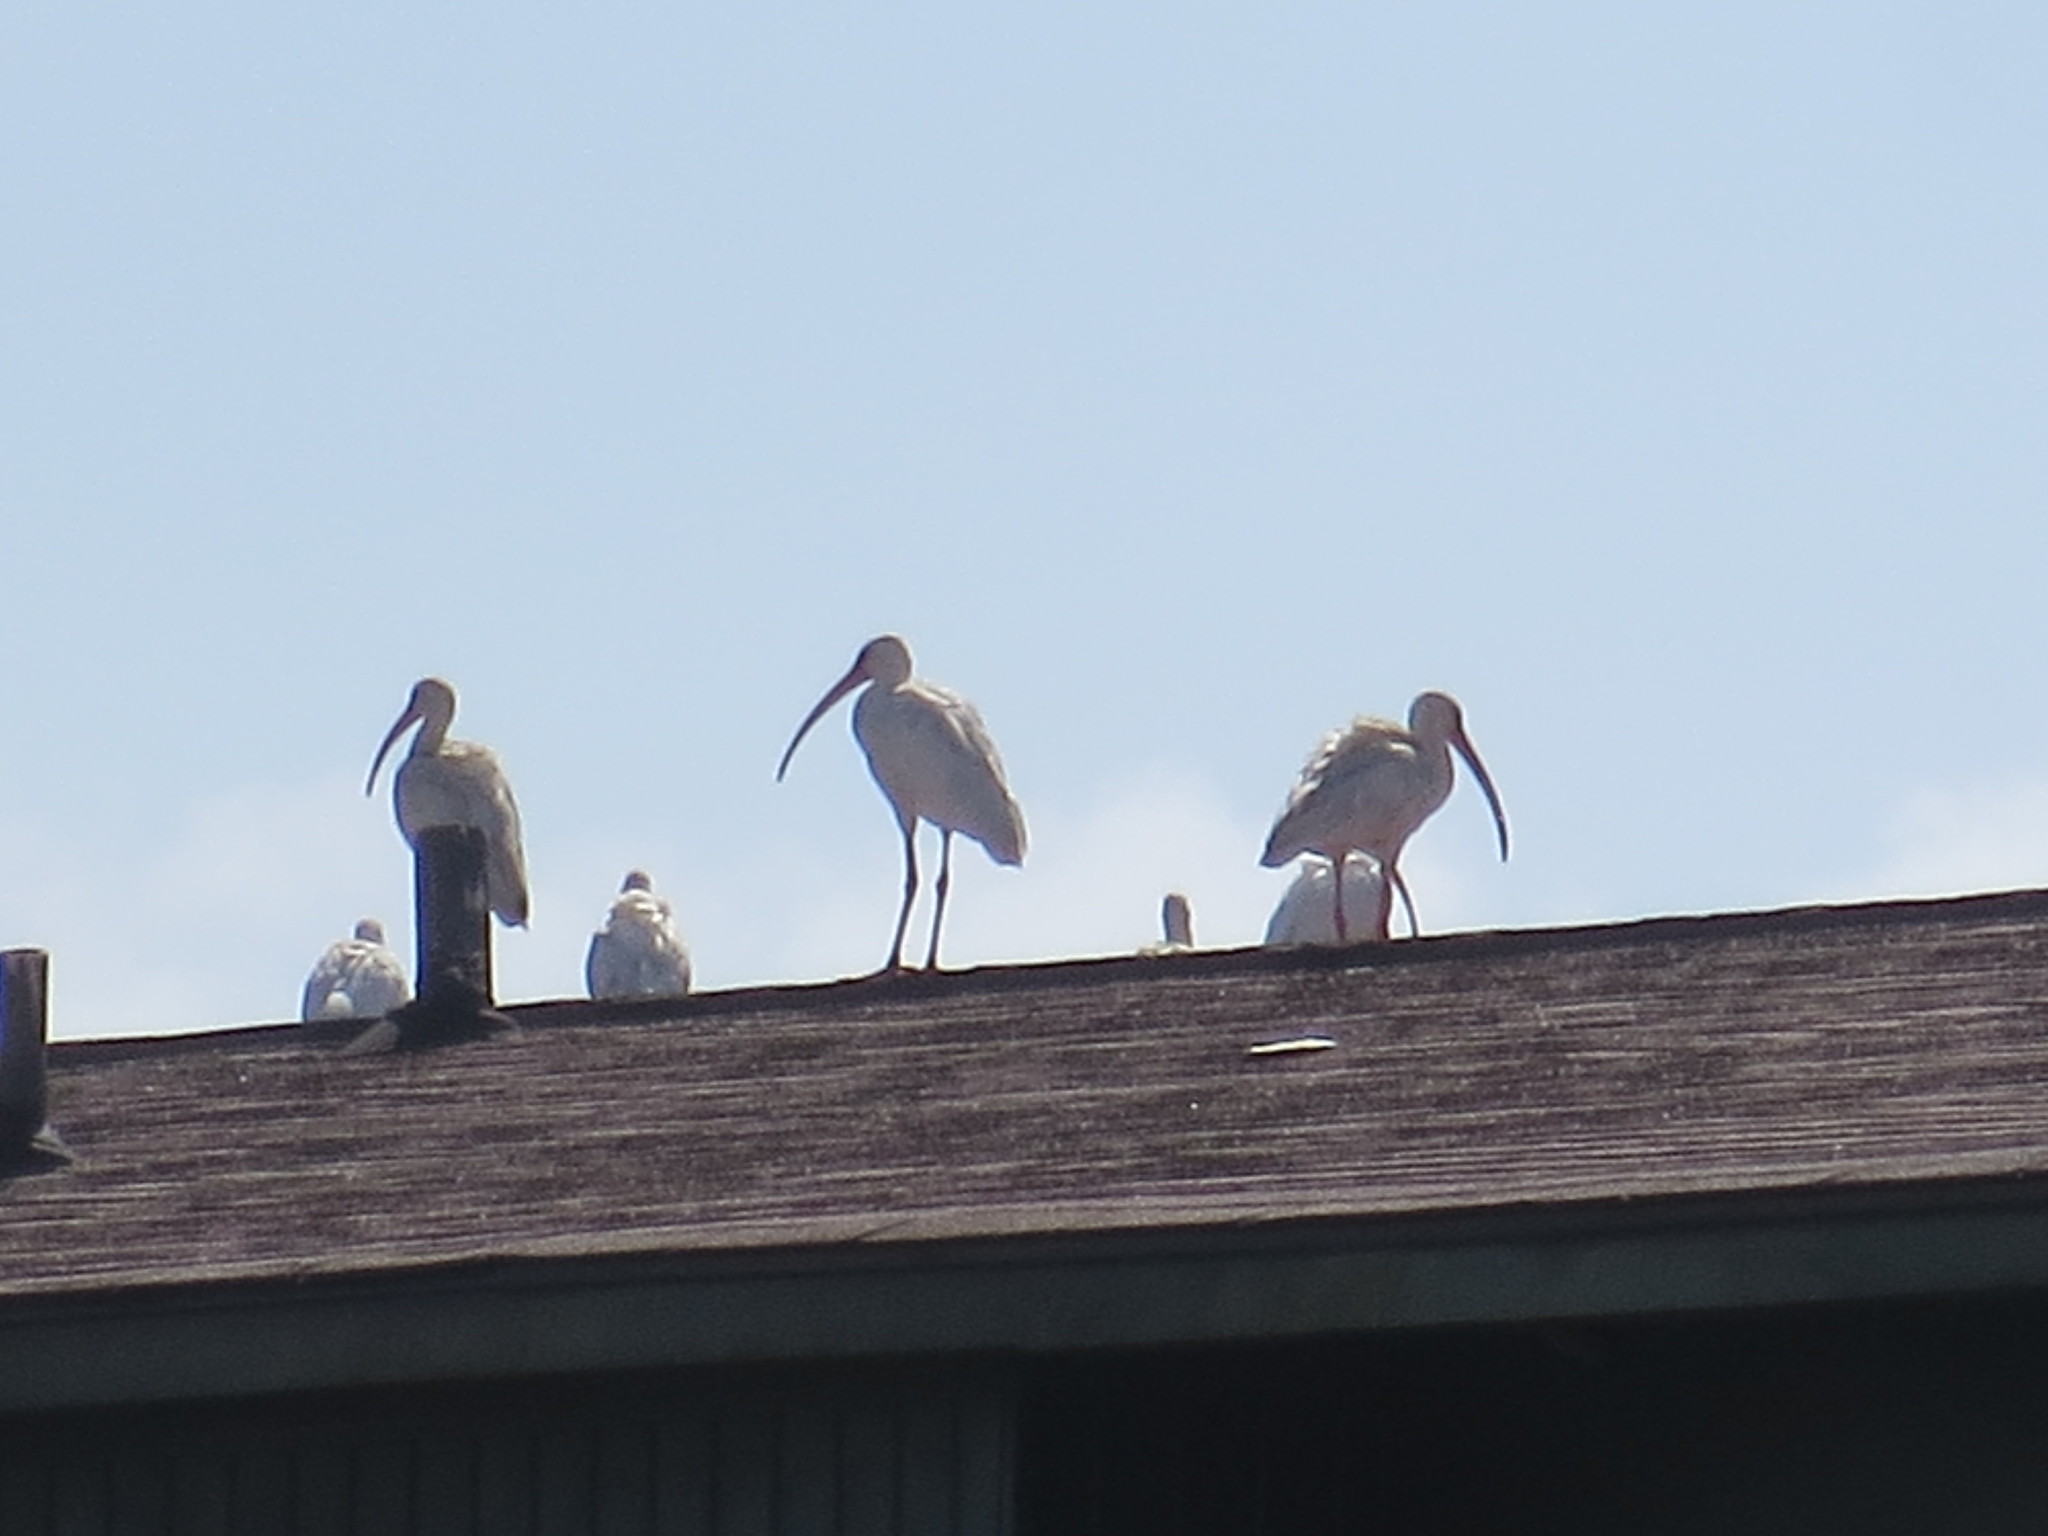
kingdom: Animalia
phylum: Chordata
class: Aves
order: Pelecaniformes
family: Threskiornithidae
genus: Eudocimus
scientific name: Eudocimus albus
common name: White ibis
